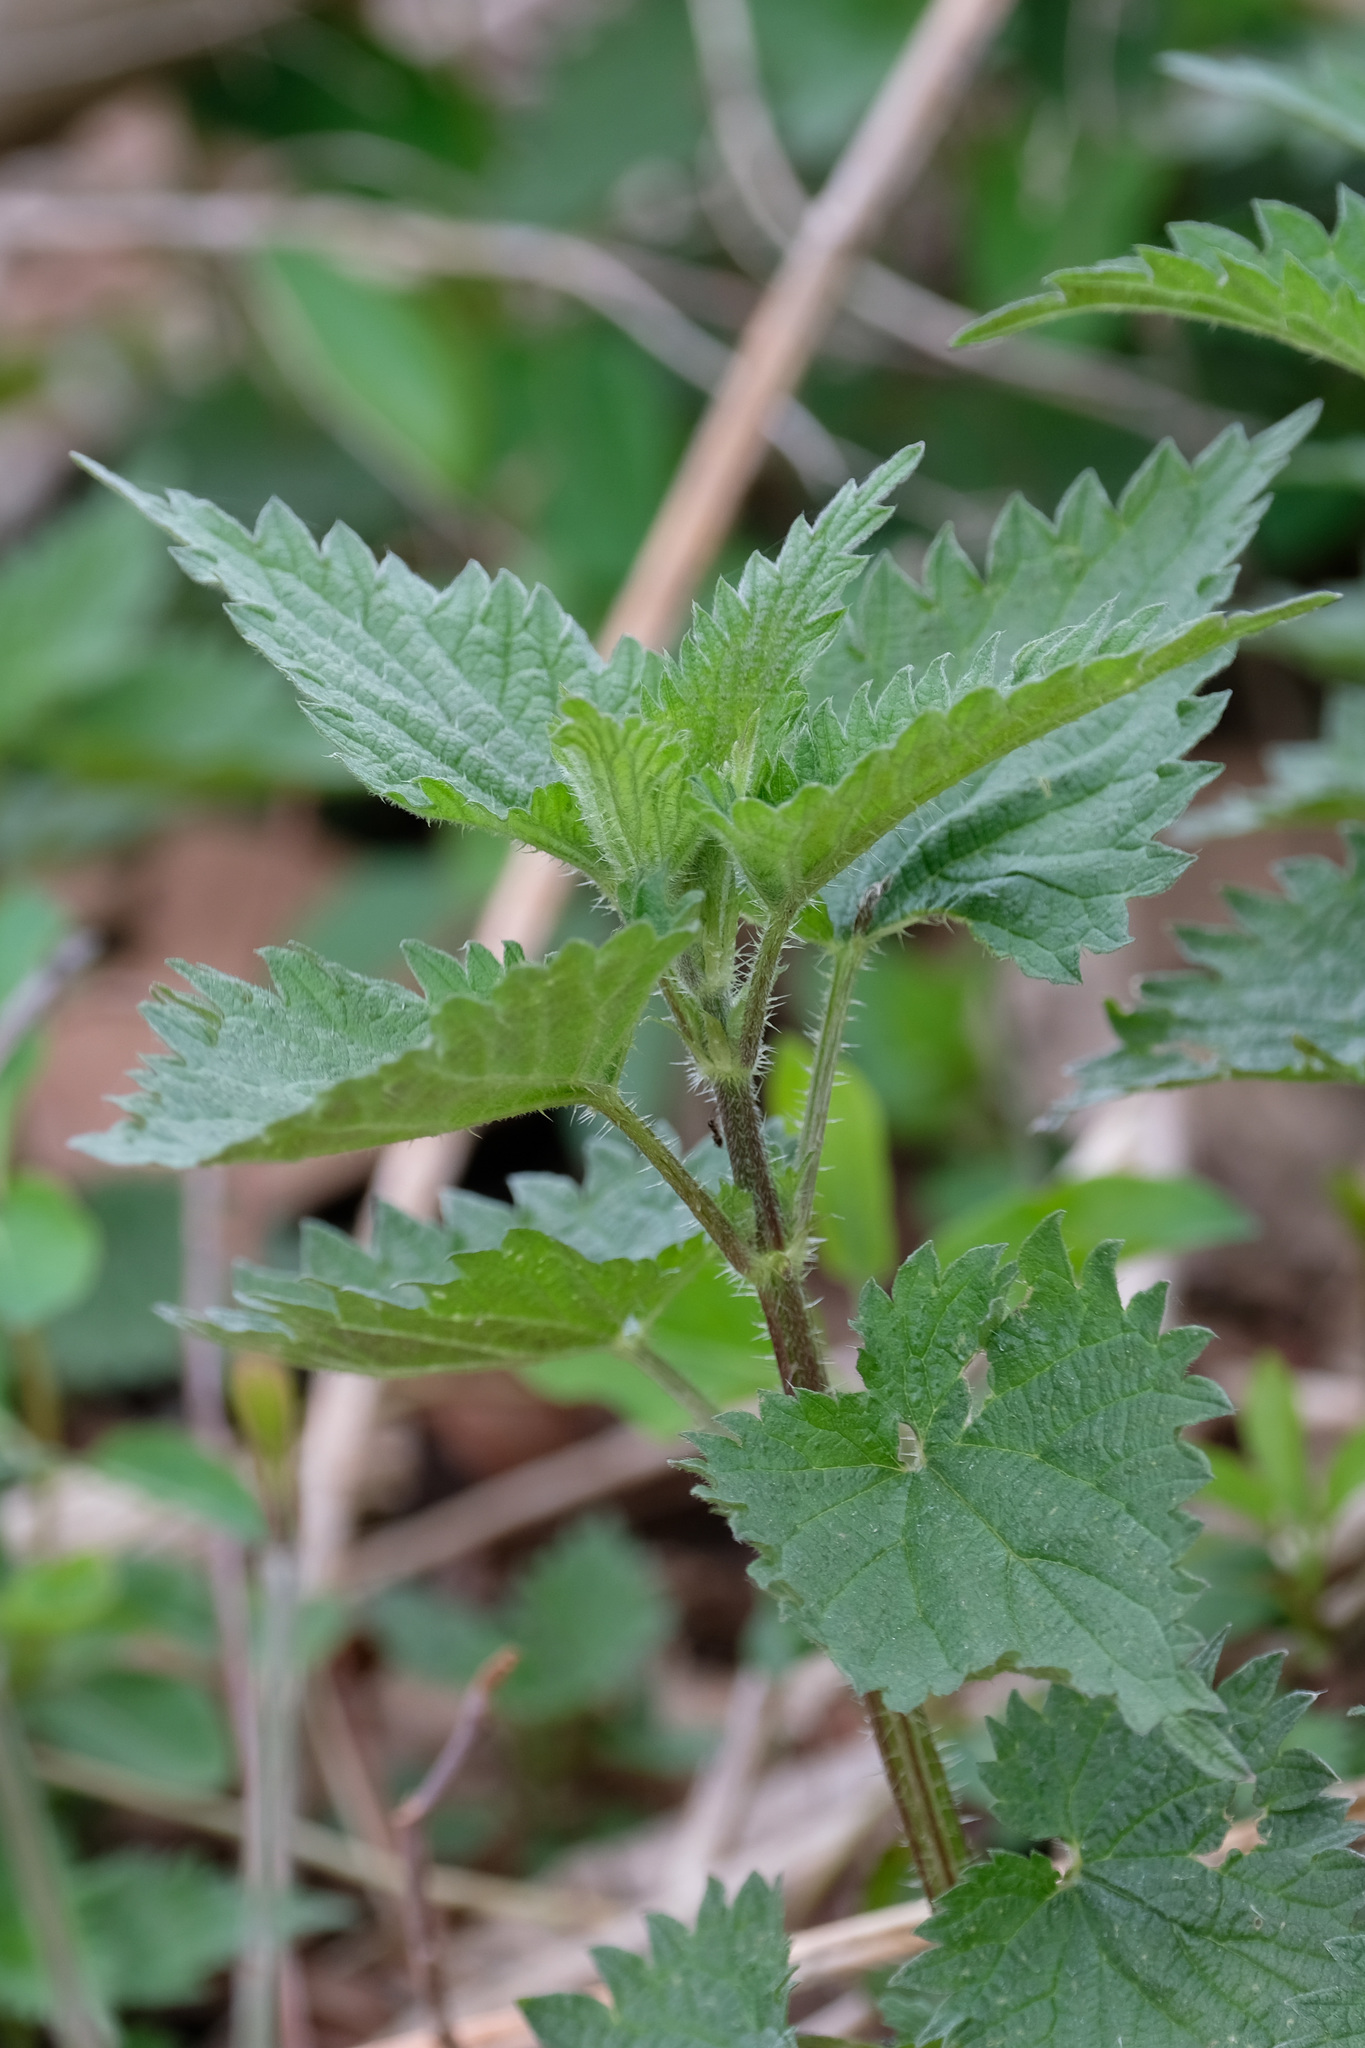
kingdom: Plantae
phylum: Tracheophyta
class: Magnoliopsida
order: Rosales
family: Urticaceae
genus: Urtica
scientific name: Urtica dioica
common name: Common nettle
